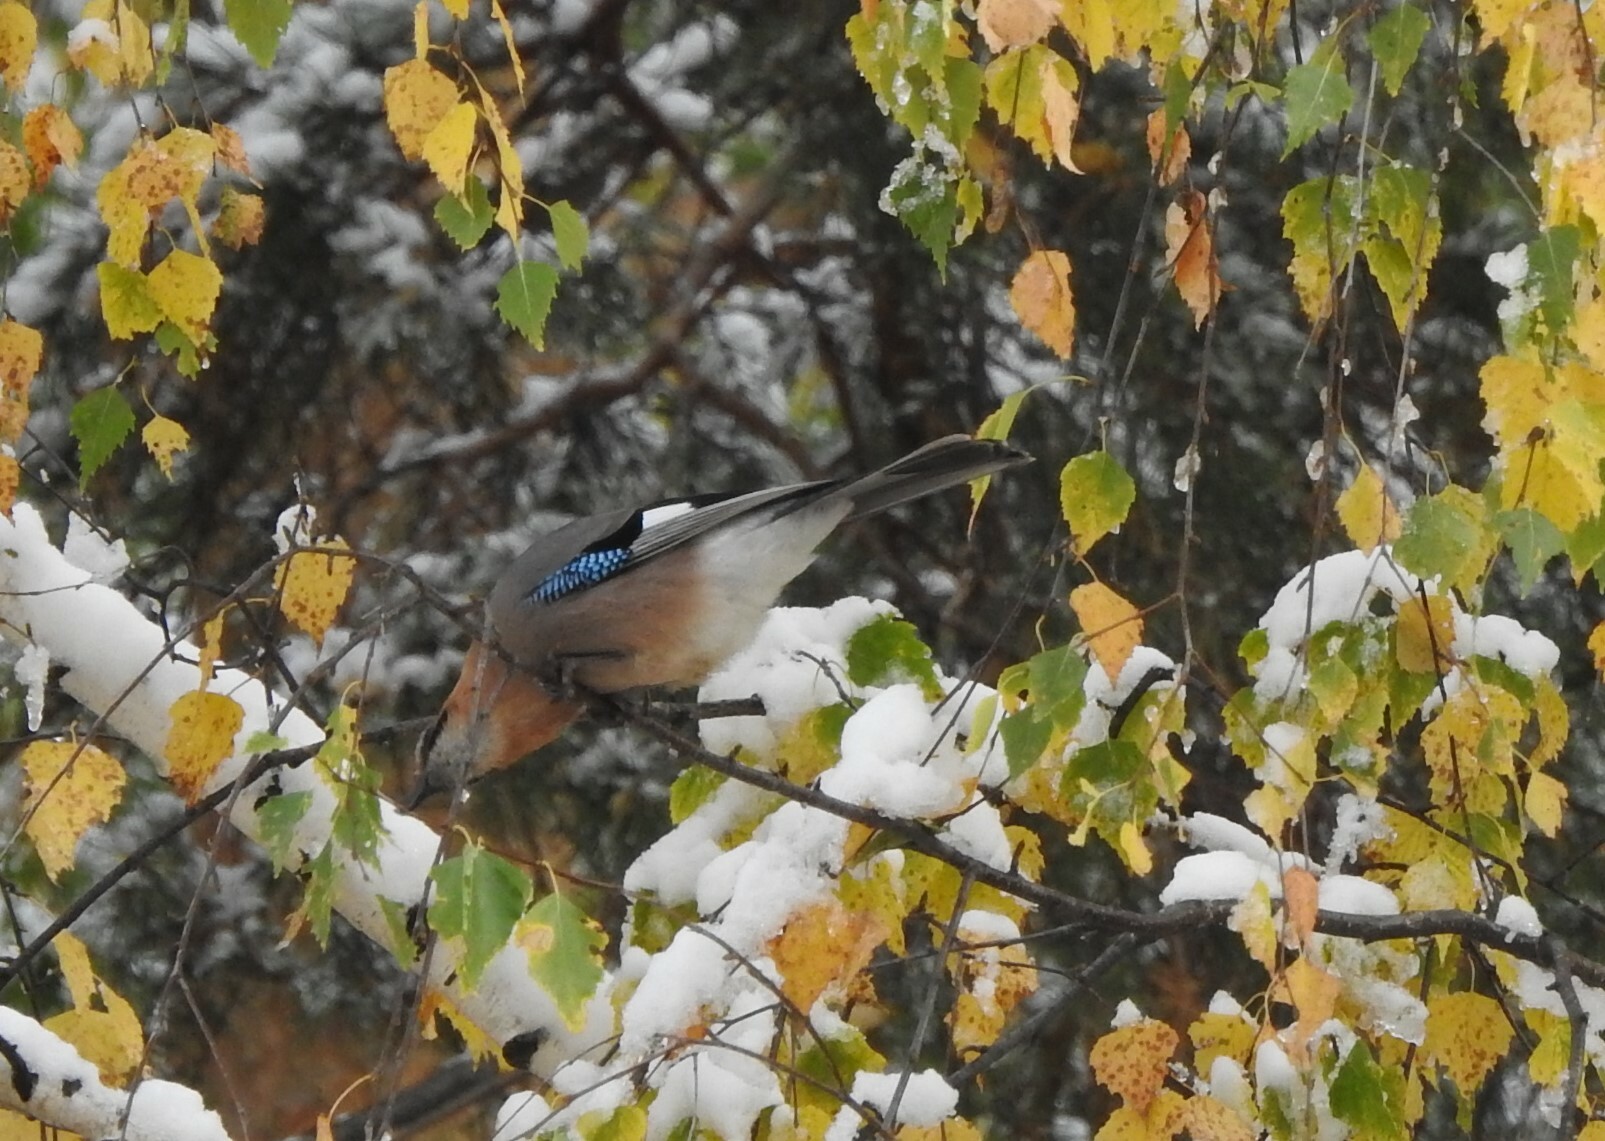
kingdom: Animalia
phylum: Chordata
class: Aves
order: Passeriformes
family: Corvidae
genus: Garrulus
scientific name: Garrulus glandarius
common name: Eurasian jay
